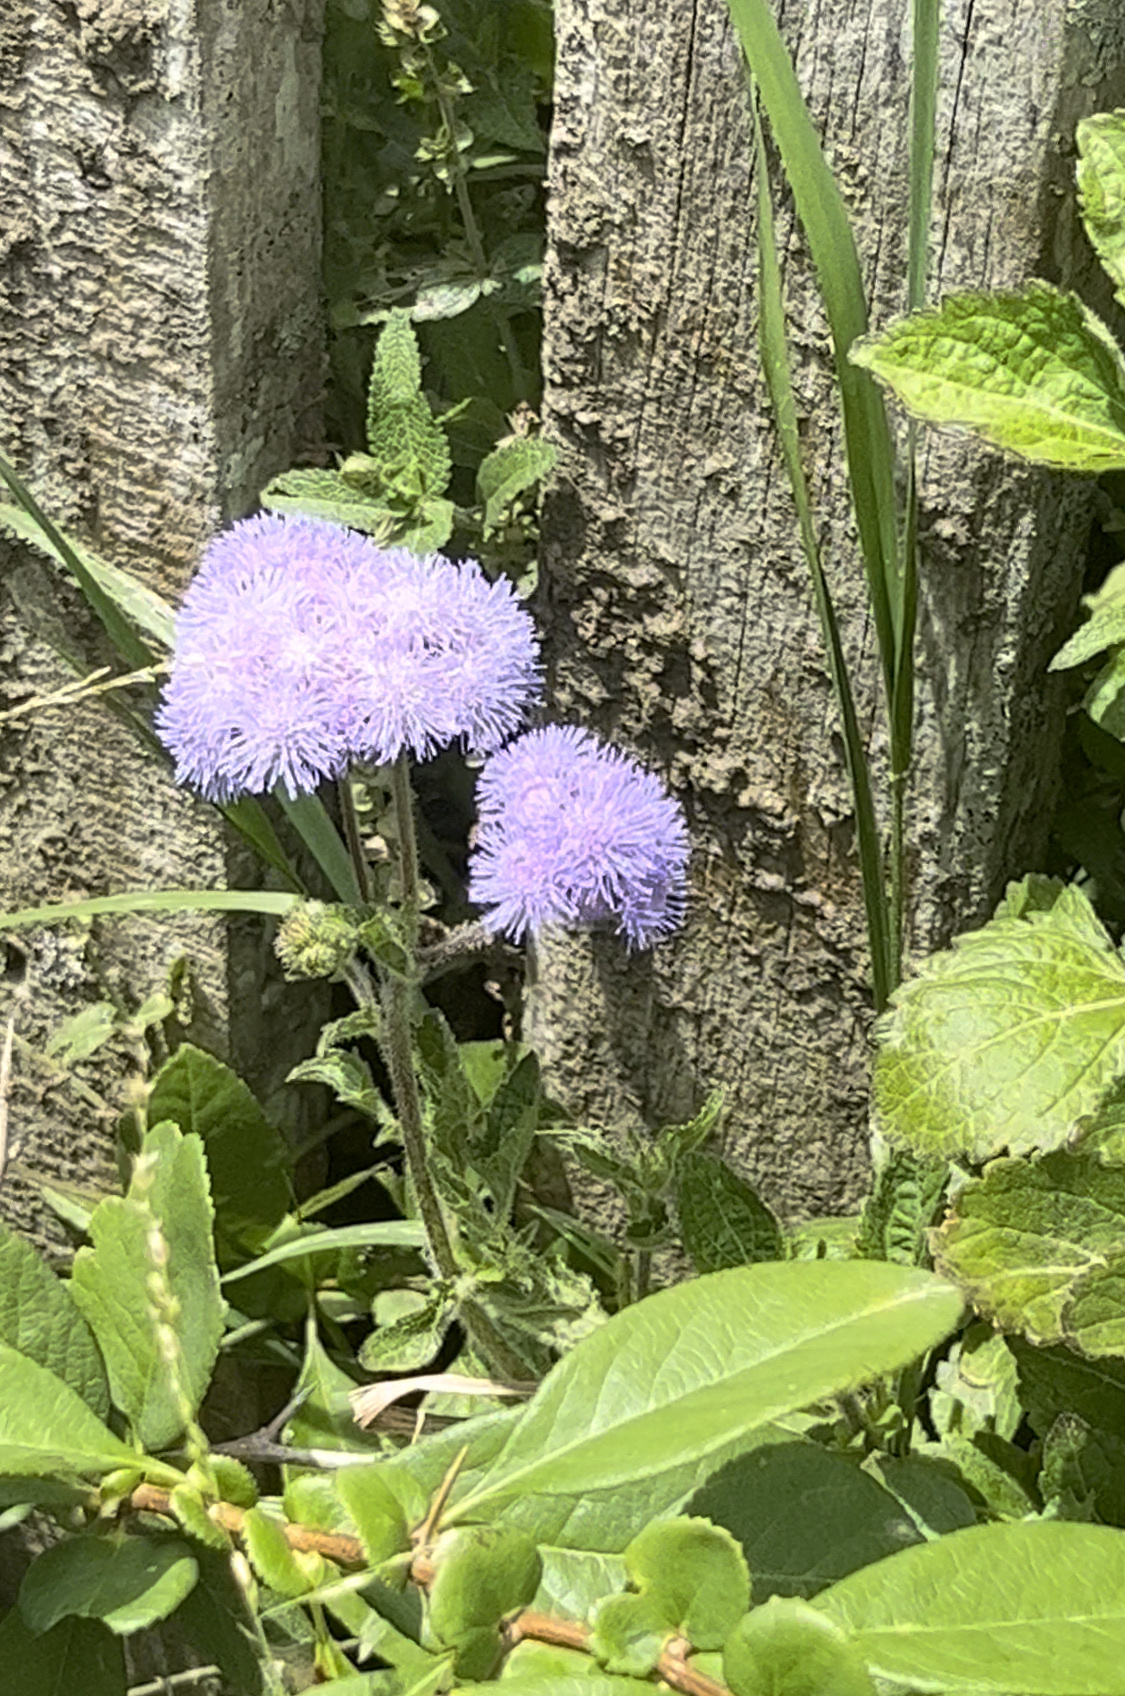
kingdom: Plantae
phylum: Tracheophyta
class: Magnoliopsida
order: Asterales
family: Asteraceae
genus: Ageratum
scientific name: Ageratum houstonianum
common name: Bluemink
